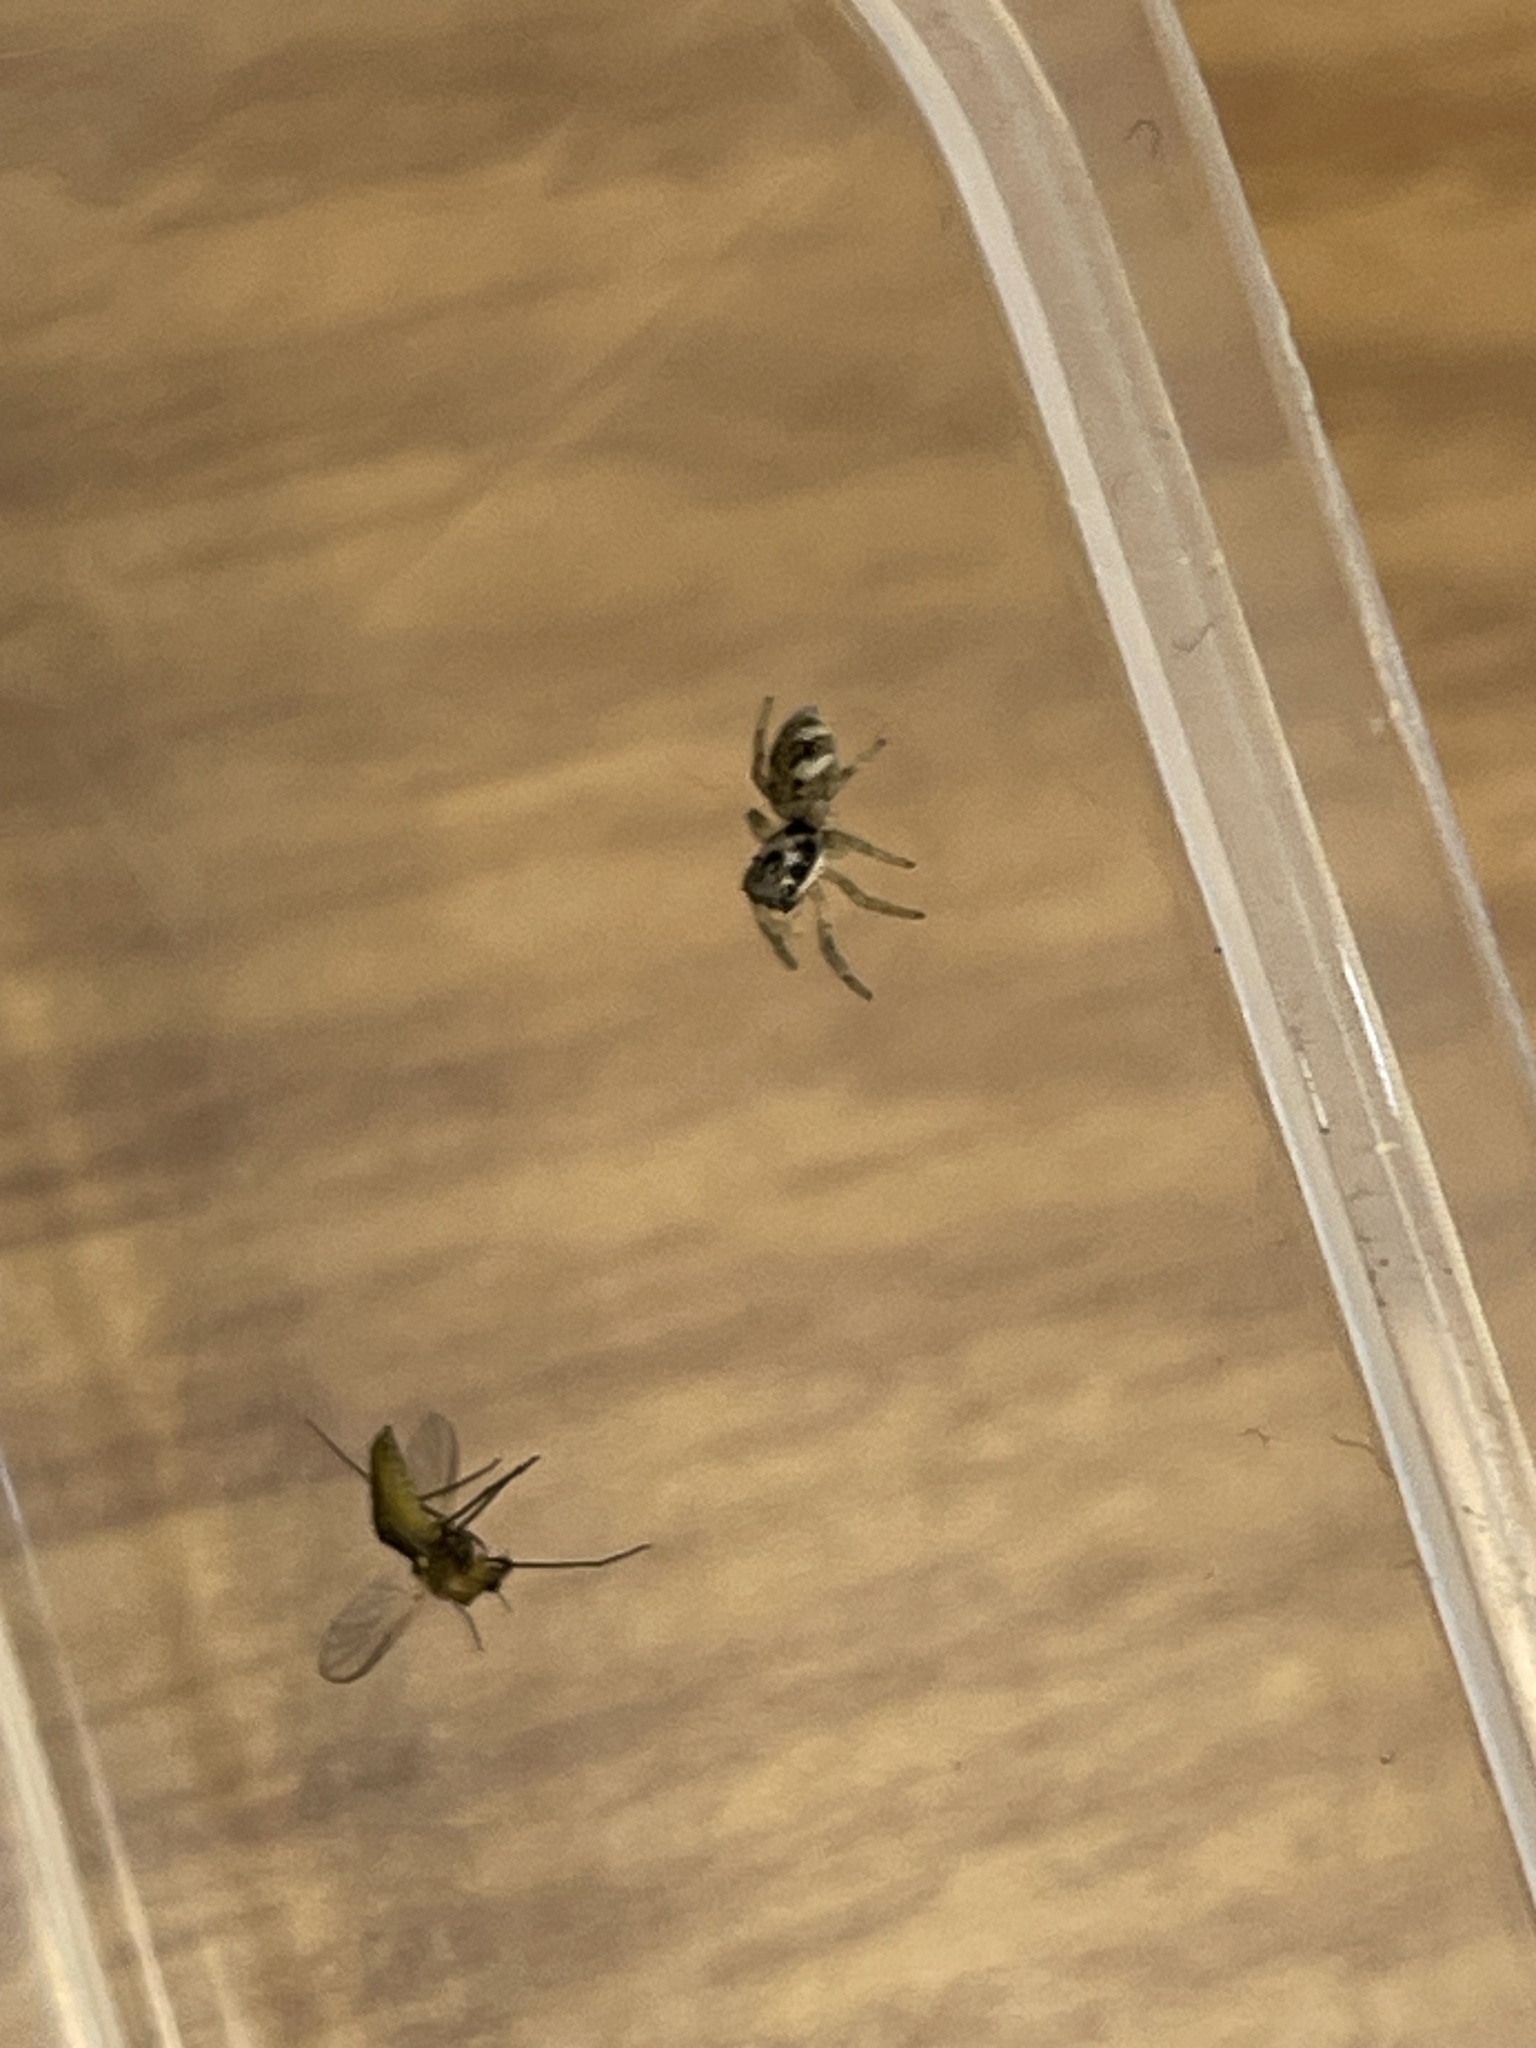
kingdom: Animalia
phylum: Arthropoda
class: Arachnida
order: Araneae
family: Salticidae
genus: Salticus
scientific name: Salticus scenicus
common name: Zebra jumper
